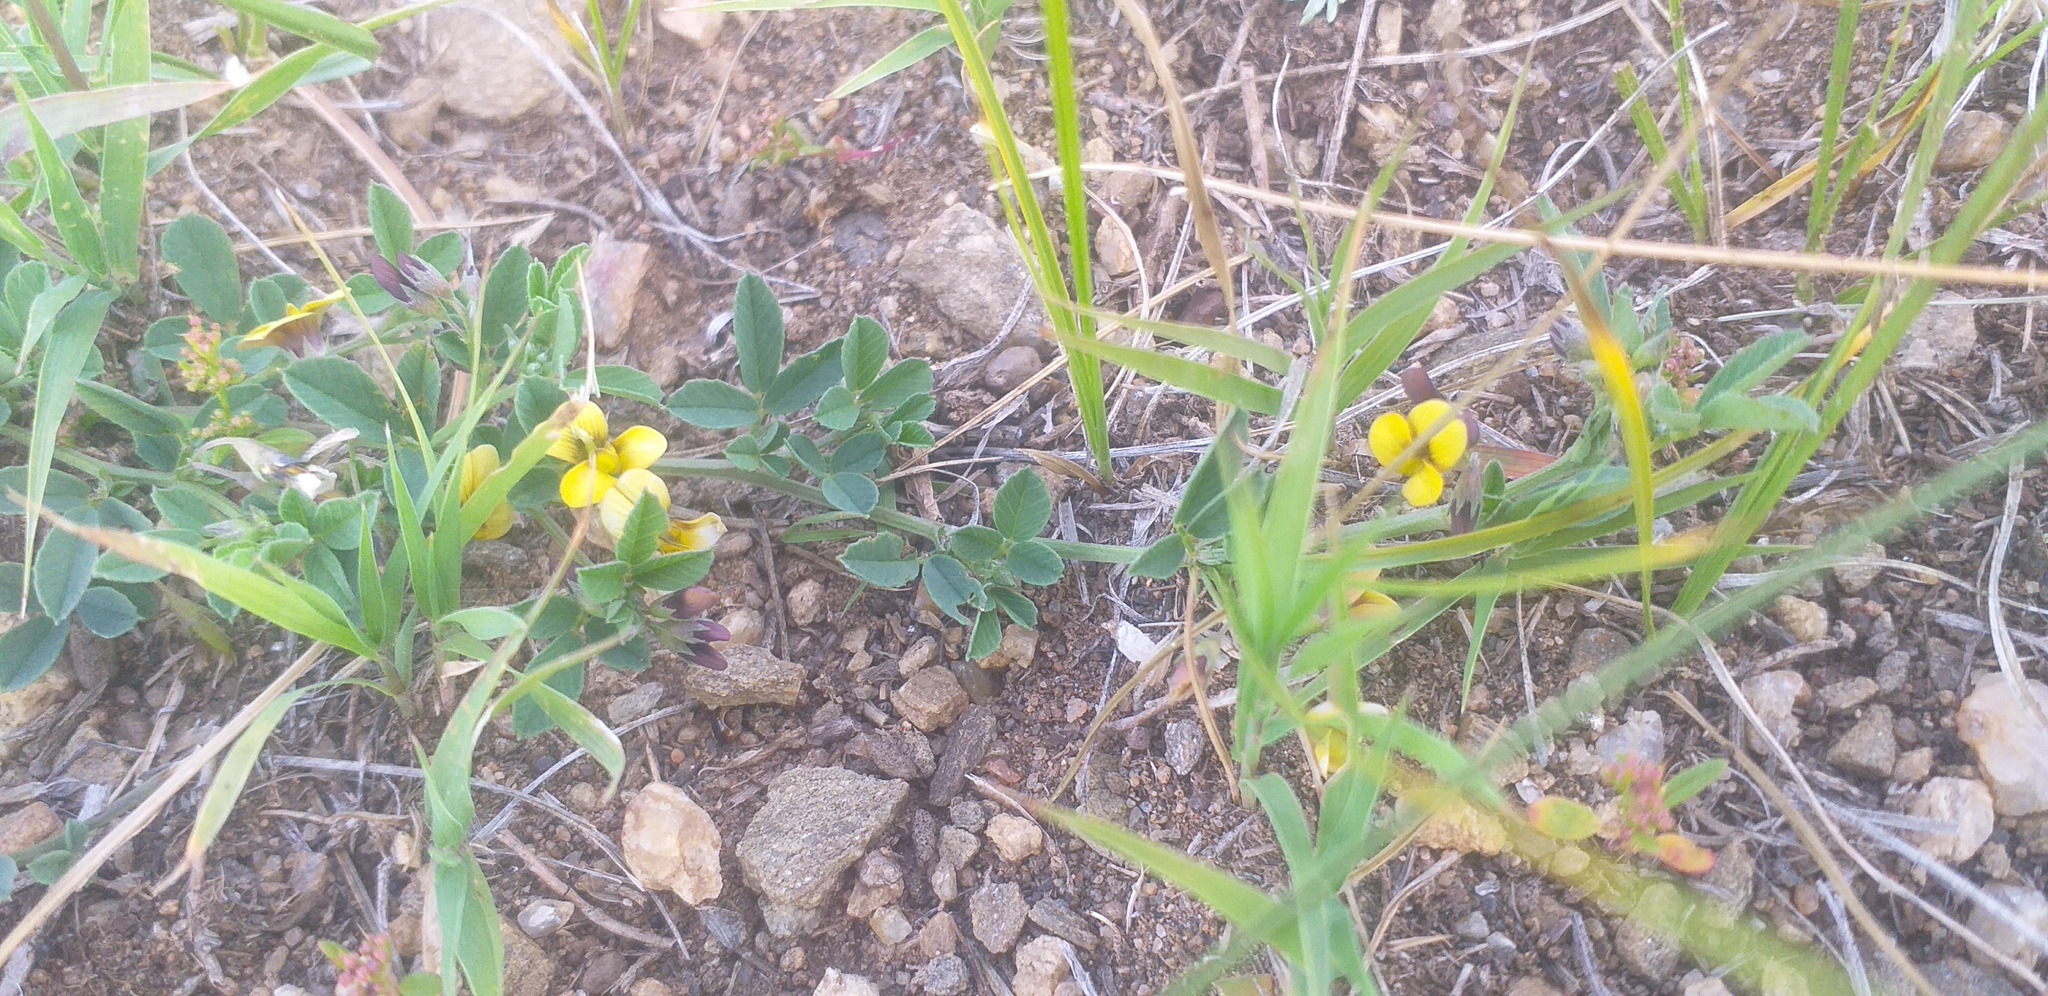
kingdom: Plantae
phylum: Tracheophyta
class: Magnoliopsida
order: Fabales
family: Fabaceae
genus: Medicago
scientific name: Medicago ruthenica
